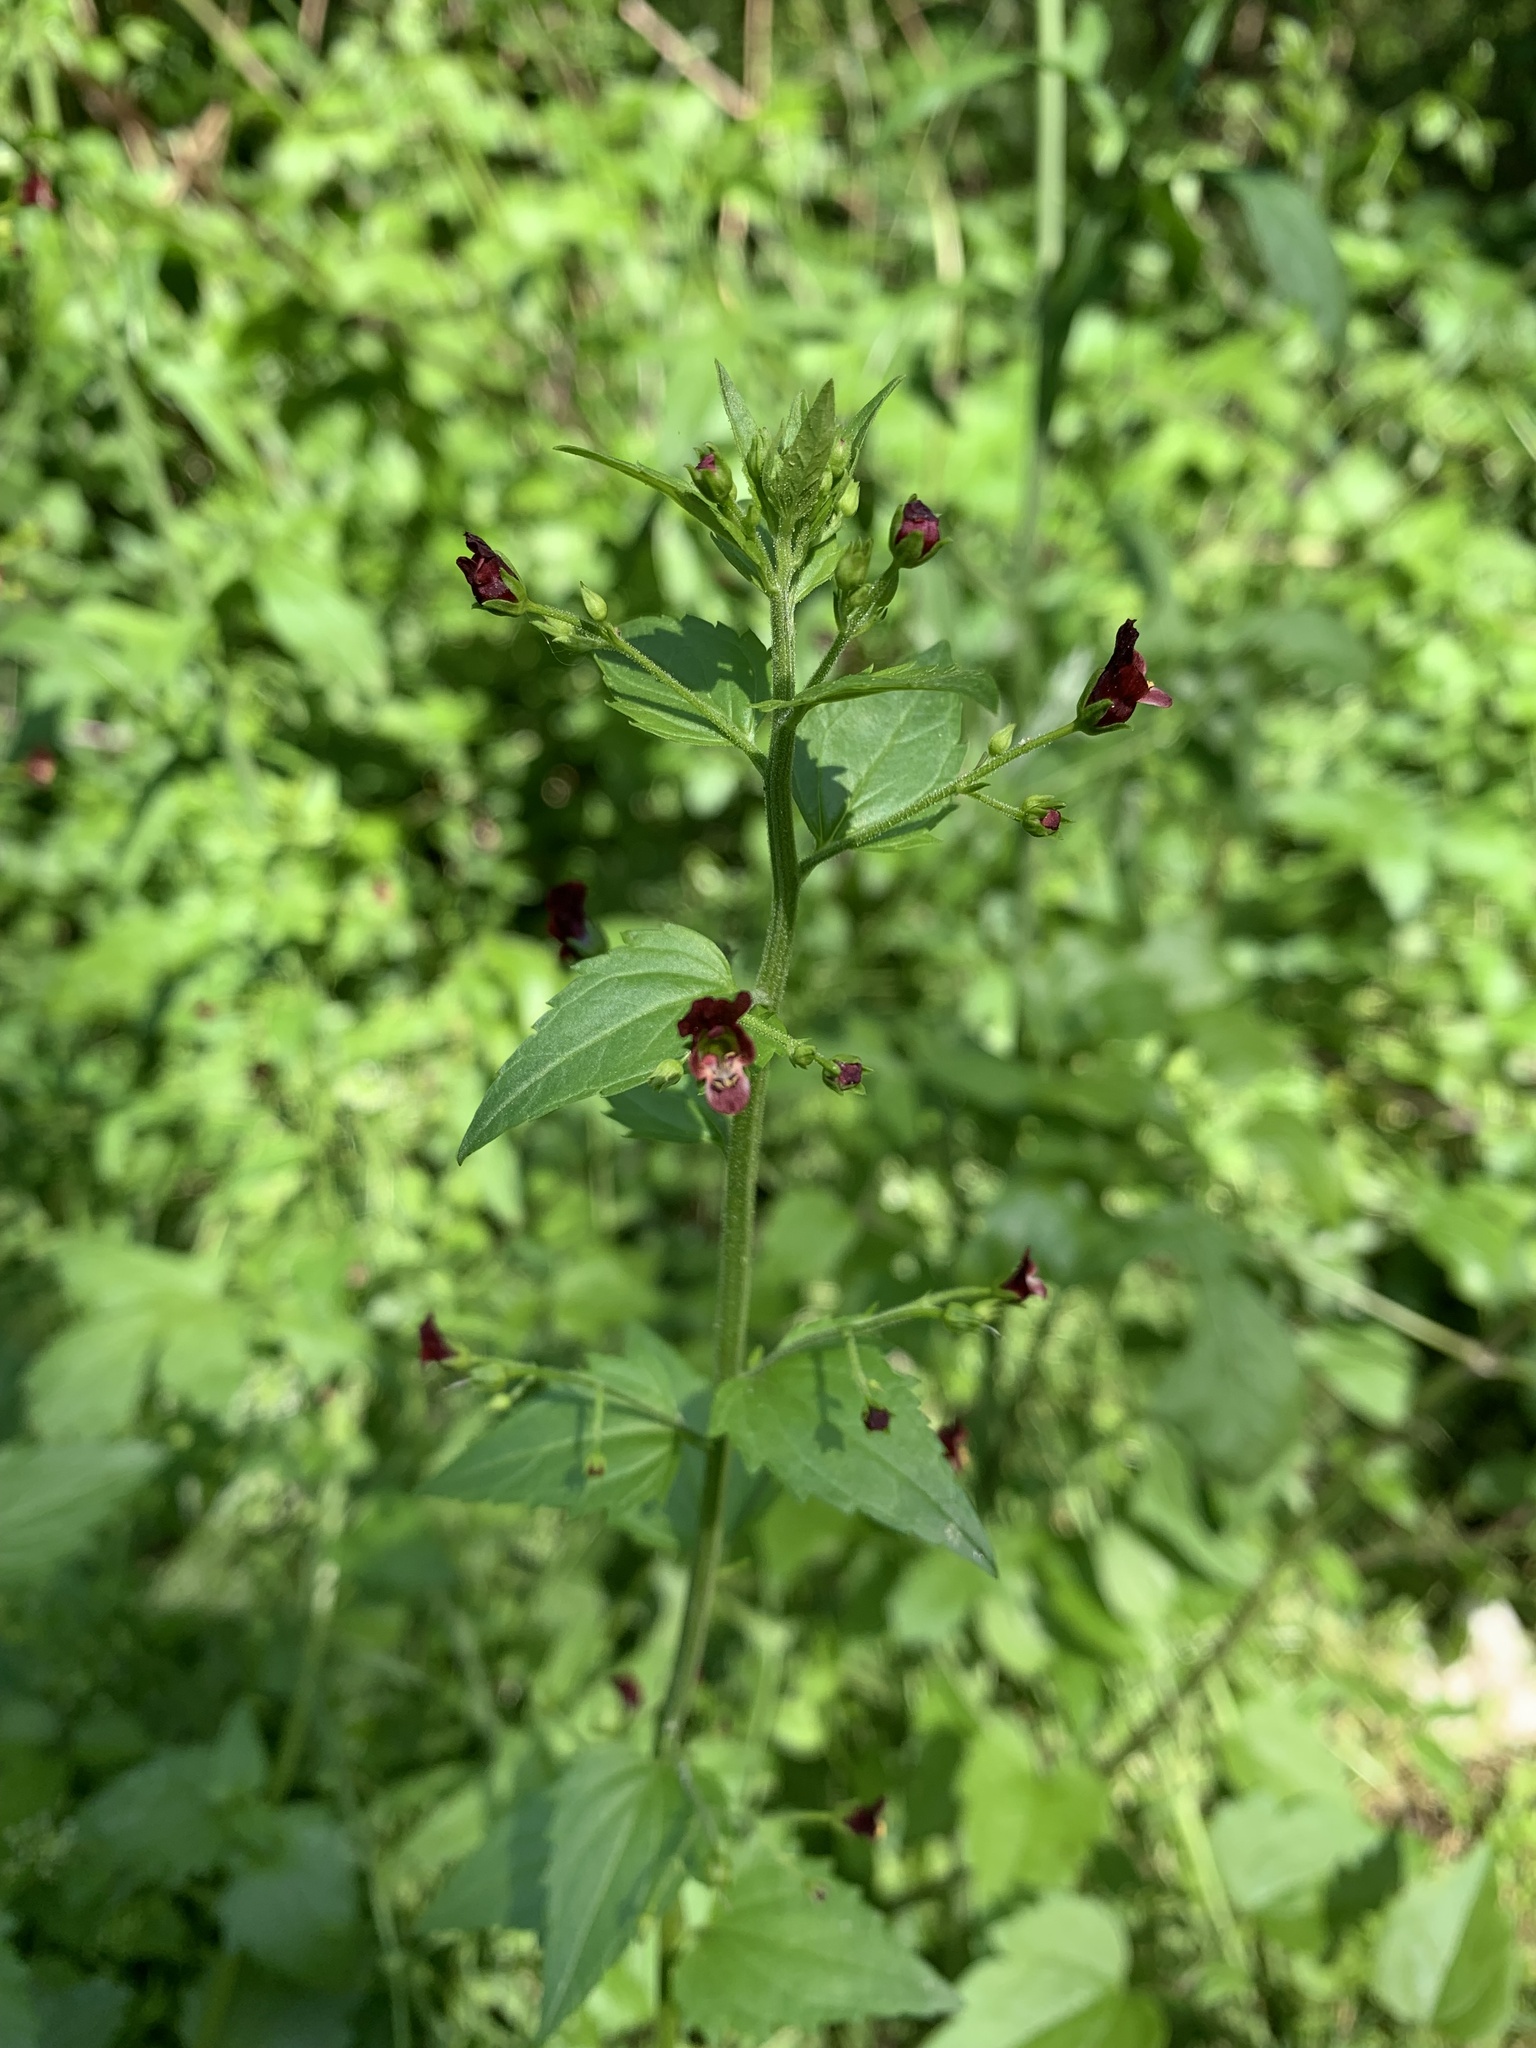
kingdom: Plantae
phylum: Tracheophyta
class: Magnoliopsida
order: Lamiales
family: Scrophulariaceae
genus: Scrophularia
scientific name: Scrophularia peregrina
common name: Mediterranean figwort
